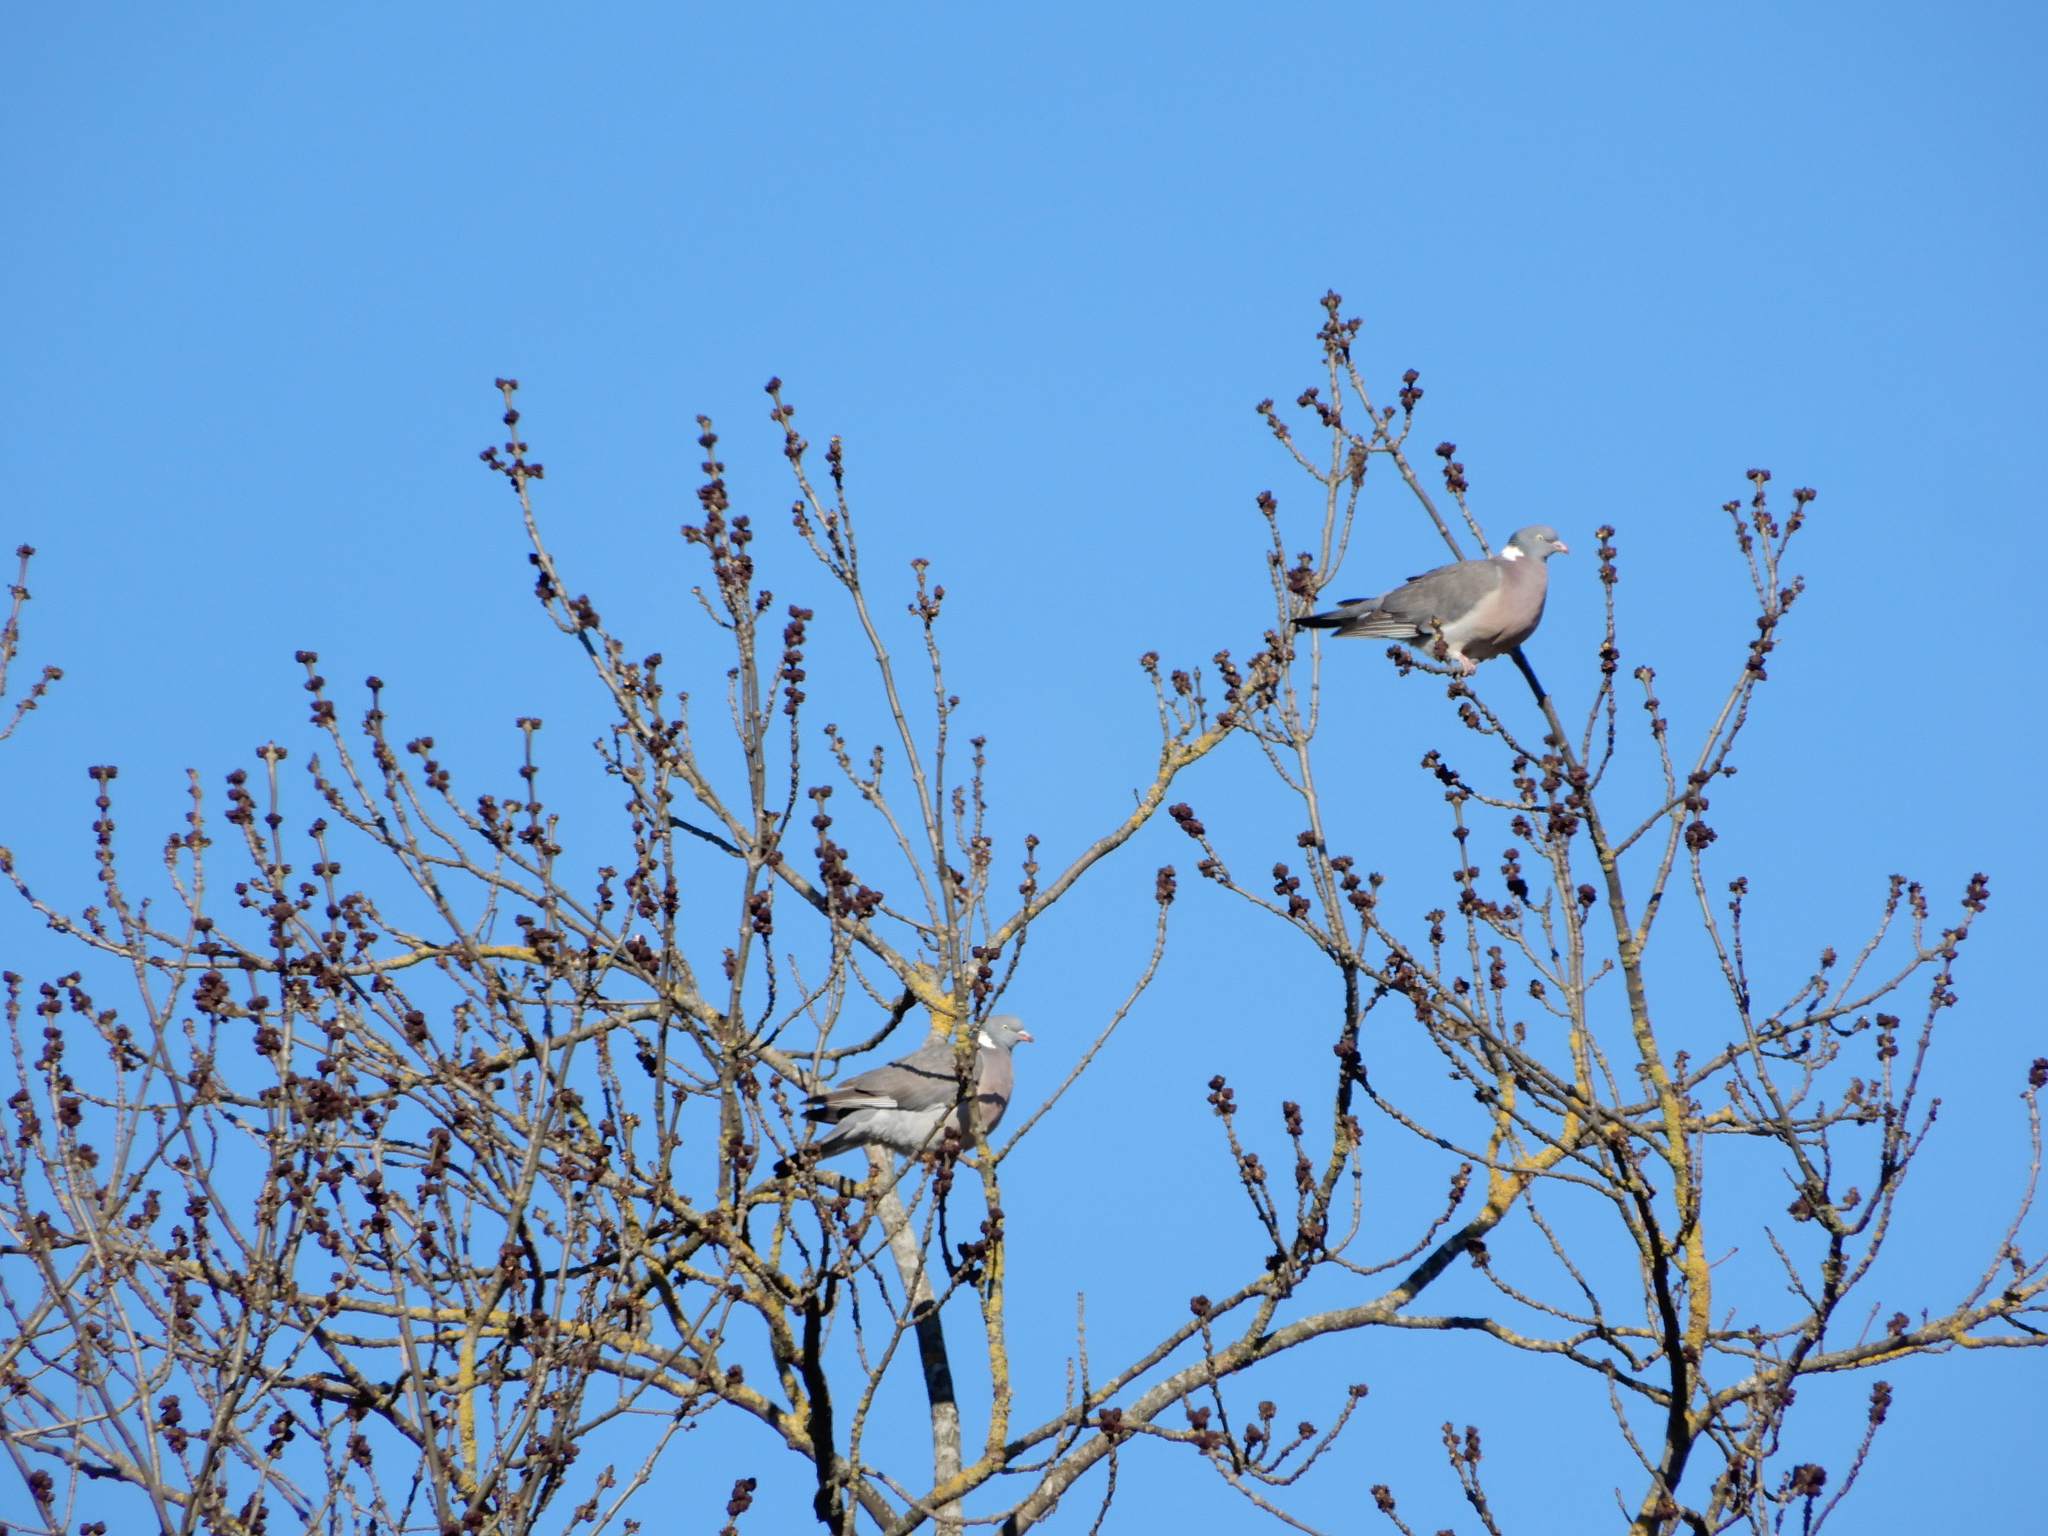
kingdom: Animalia
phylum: Chordata
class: Aves
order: Columbiformes
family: Columbidae
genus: Columba
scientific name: Columba palumbus
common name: Common wood pigeon
